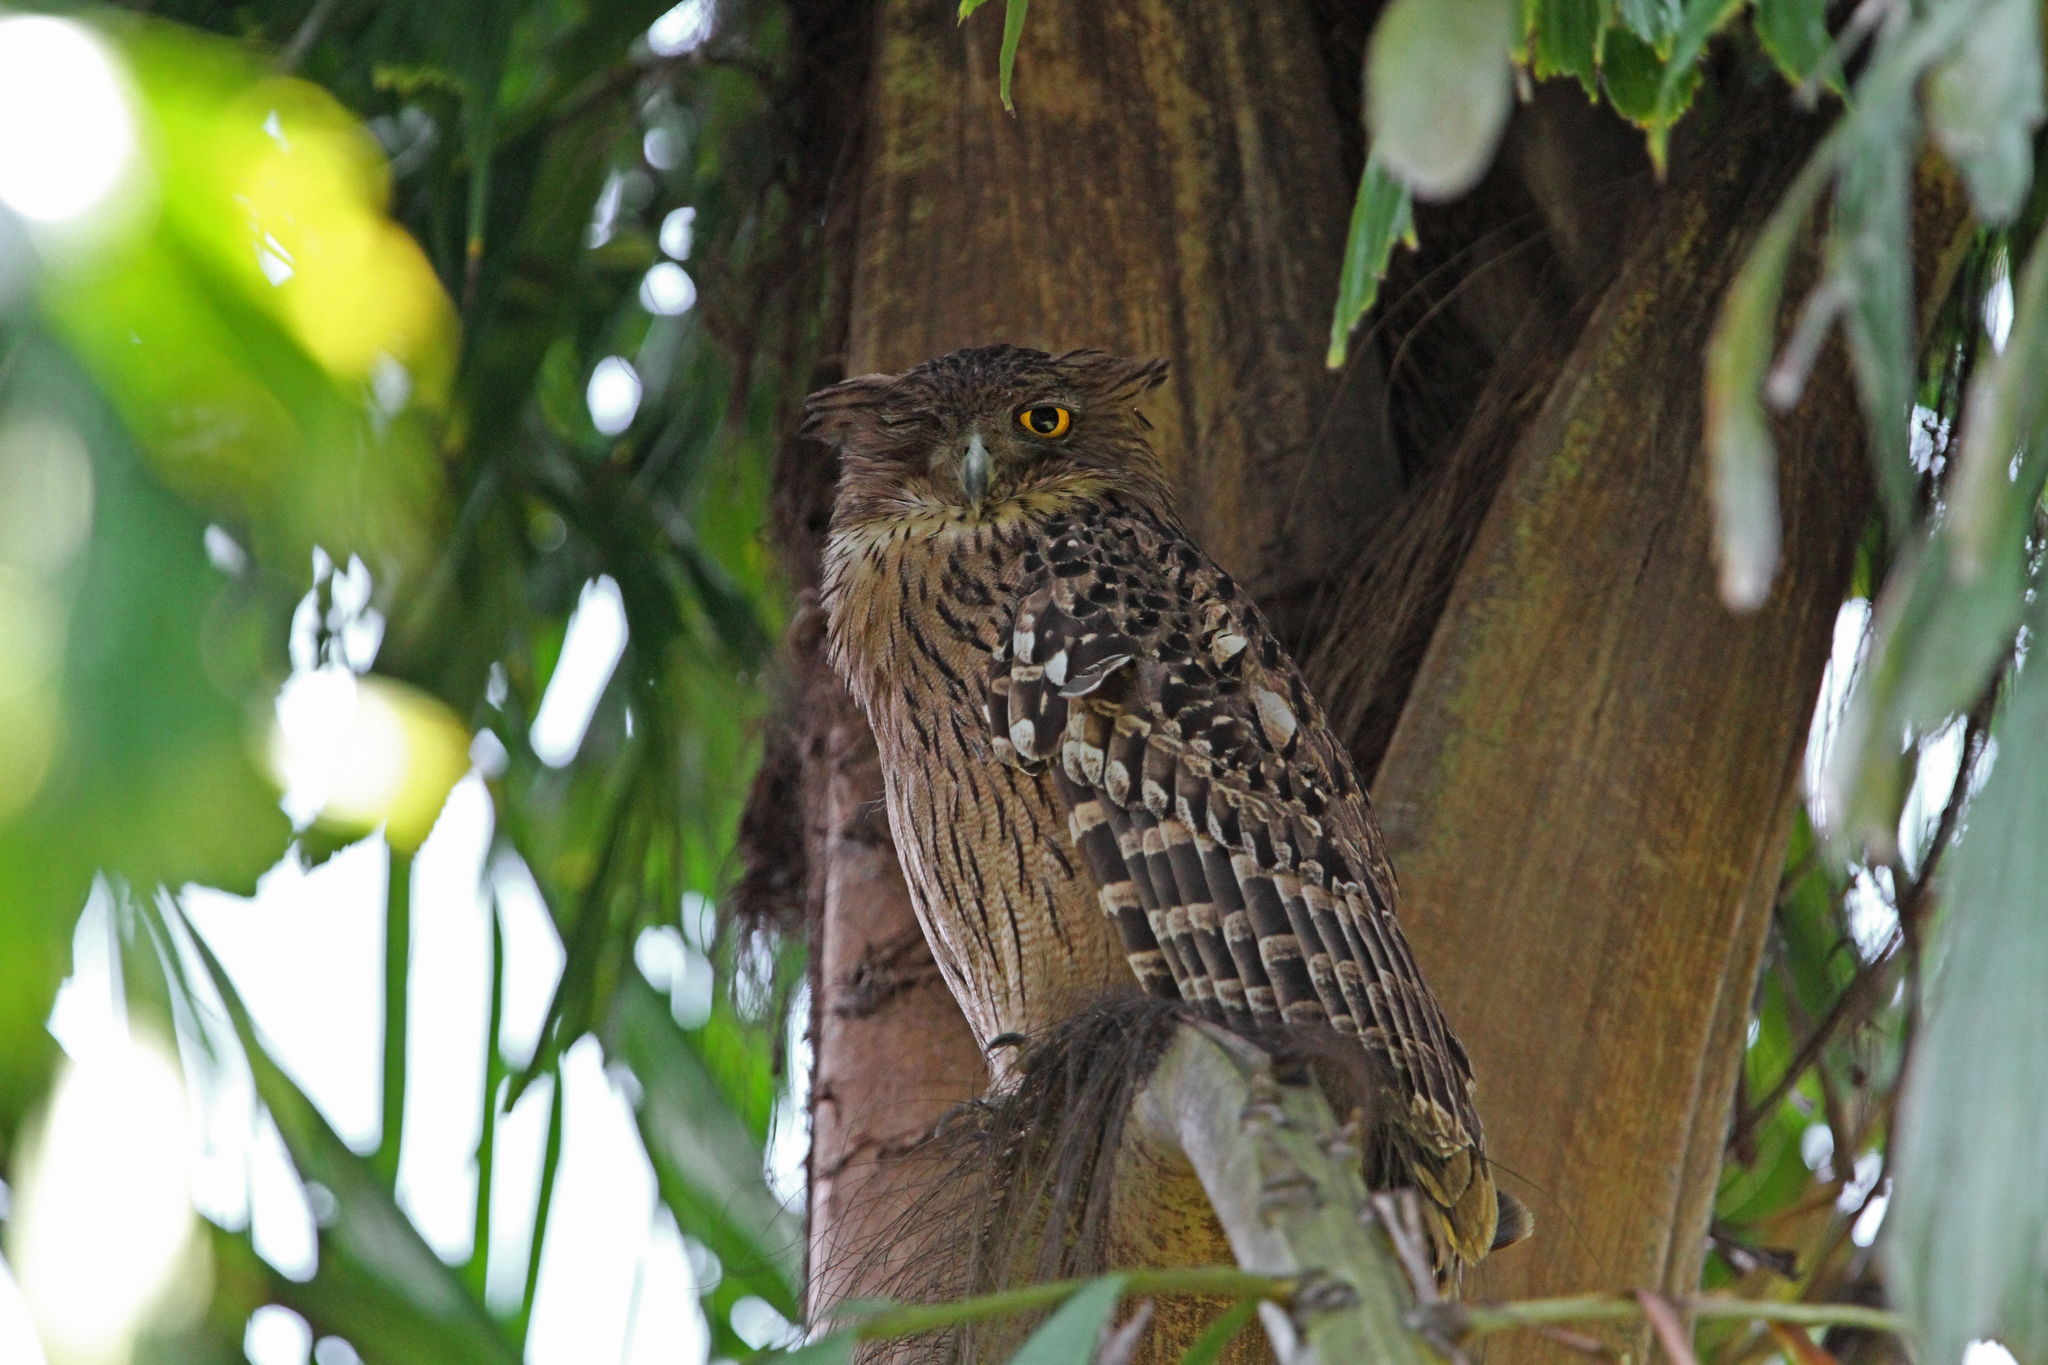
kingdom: Animalia
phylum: Chordata
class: Aves
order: Strigiformes
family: Strigidae
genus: Ketupa
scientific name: Ketupa zeylonensis
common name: Brown fish owl
